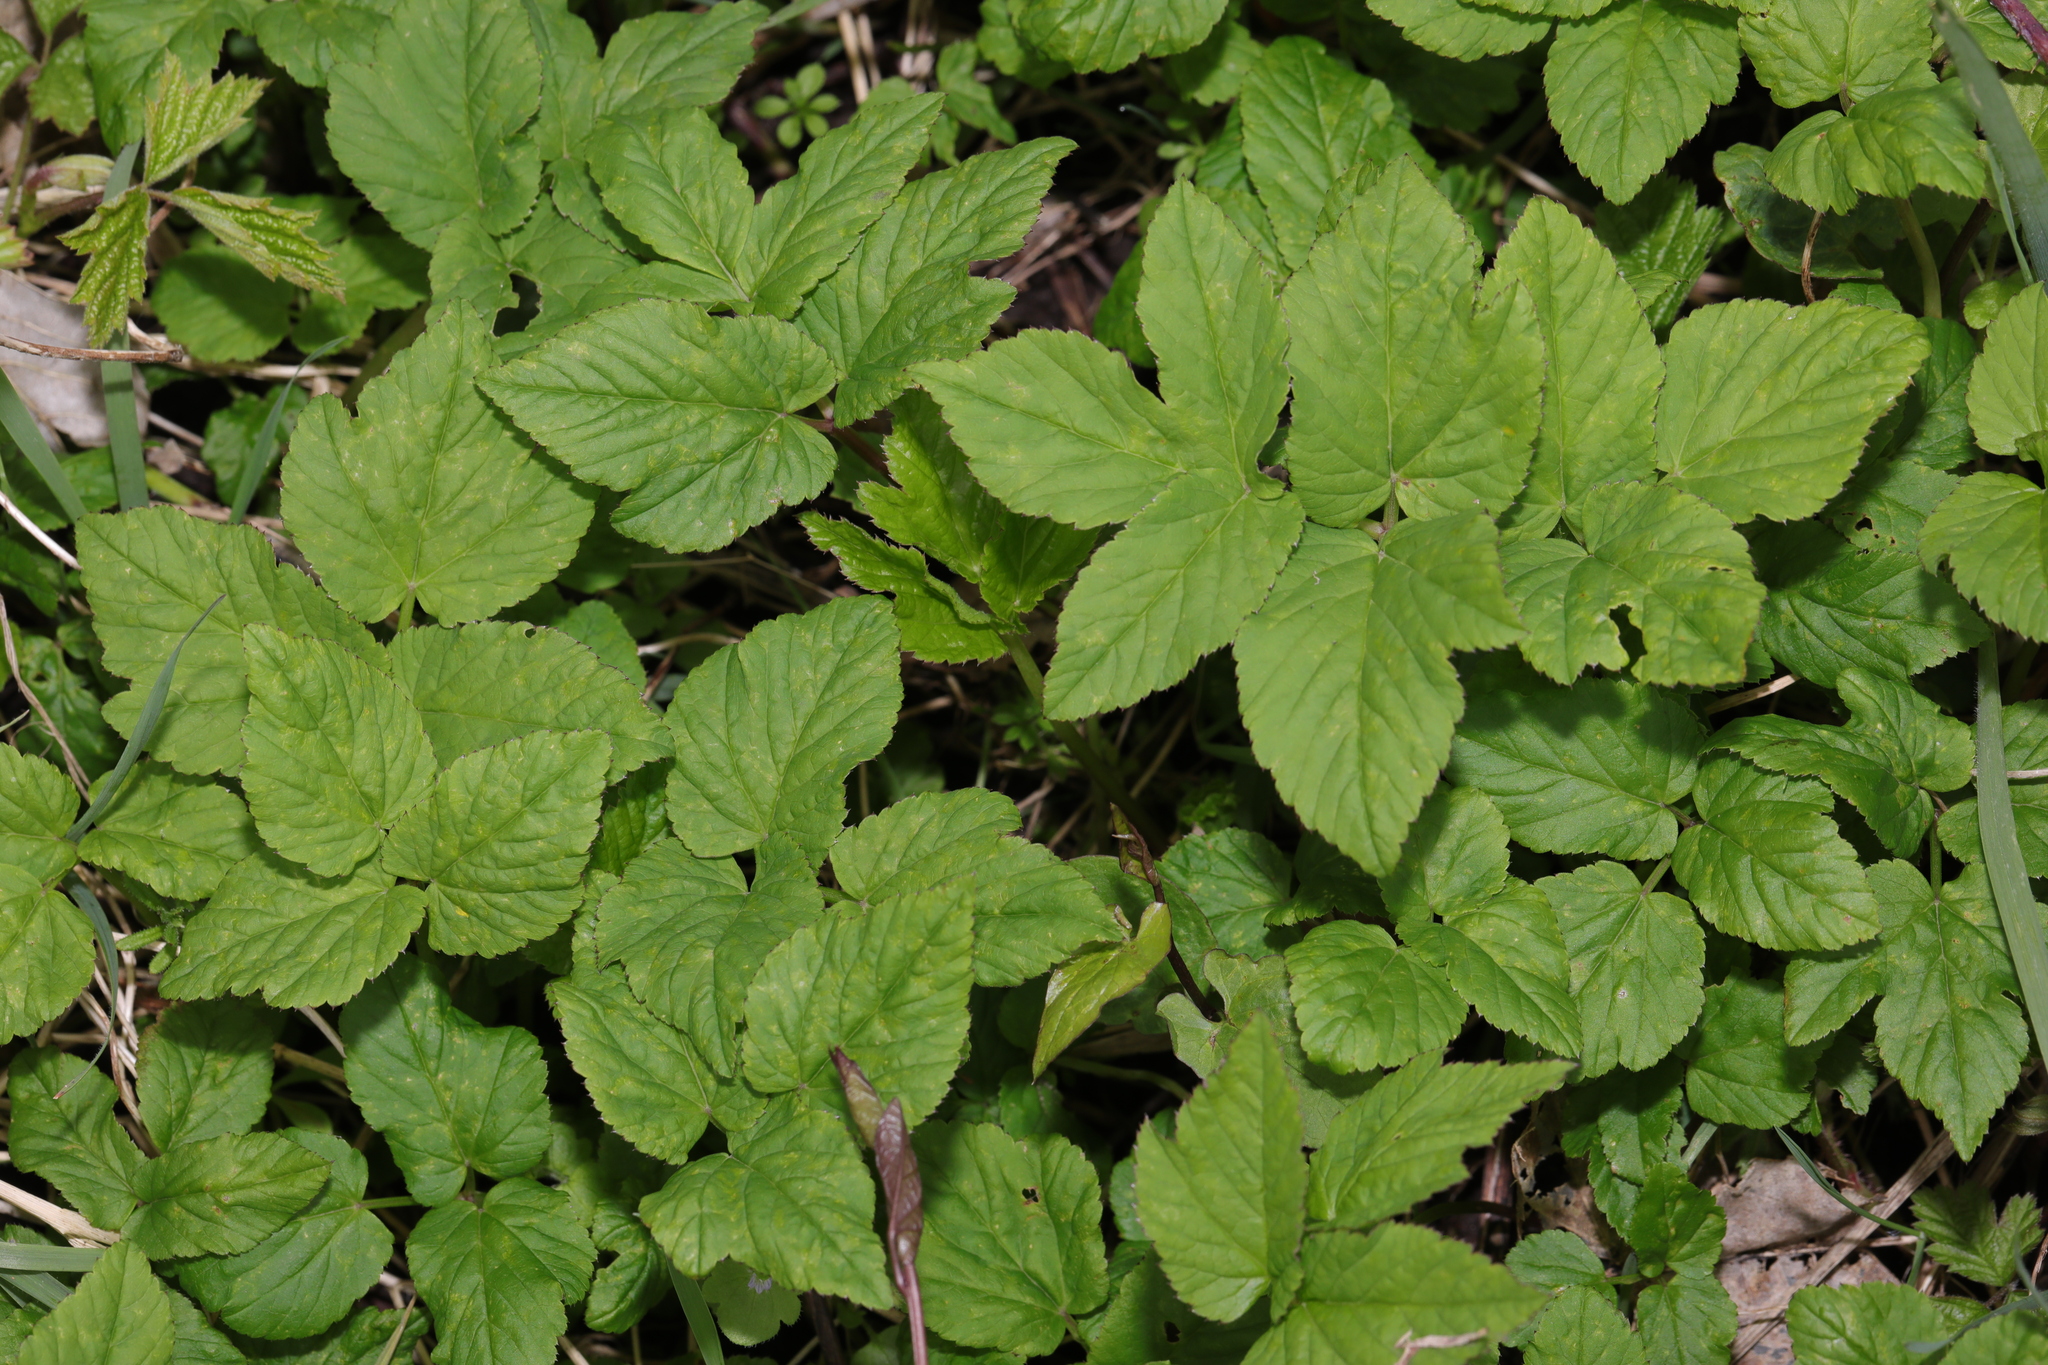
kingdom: Plantae
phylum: Tracheophyta
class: Magnoliopsida
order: Apiales
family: Apiaceae
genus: Aegopodium
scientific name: Aegopodium podagraria
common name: Ground-elder
